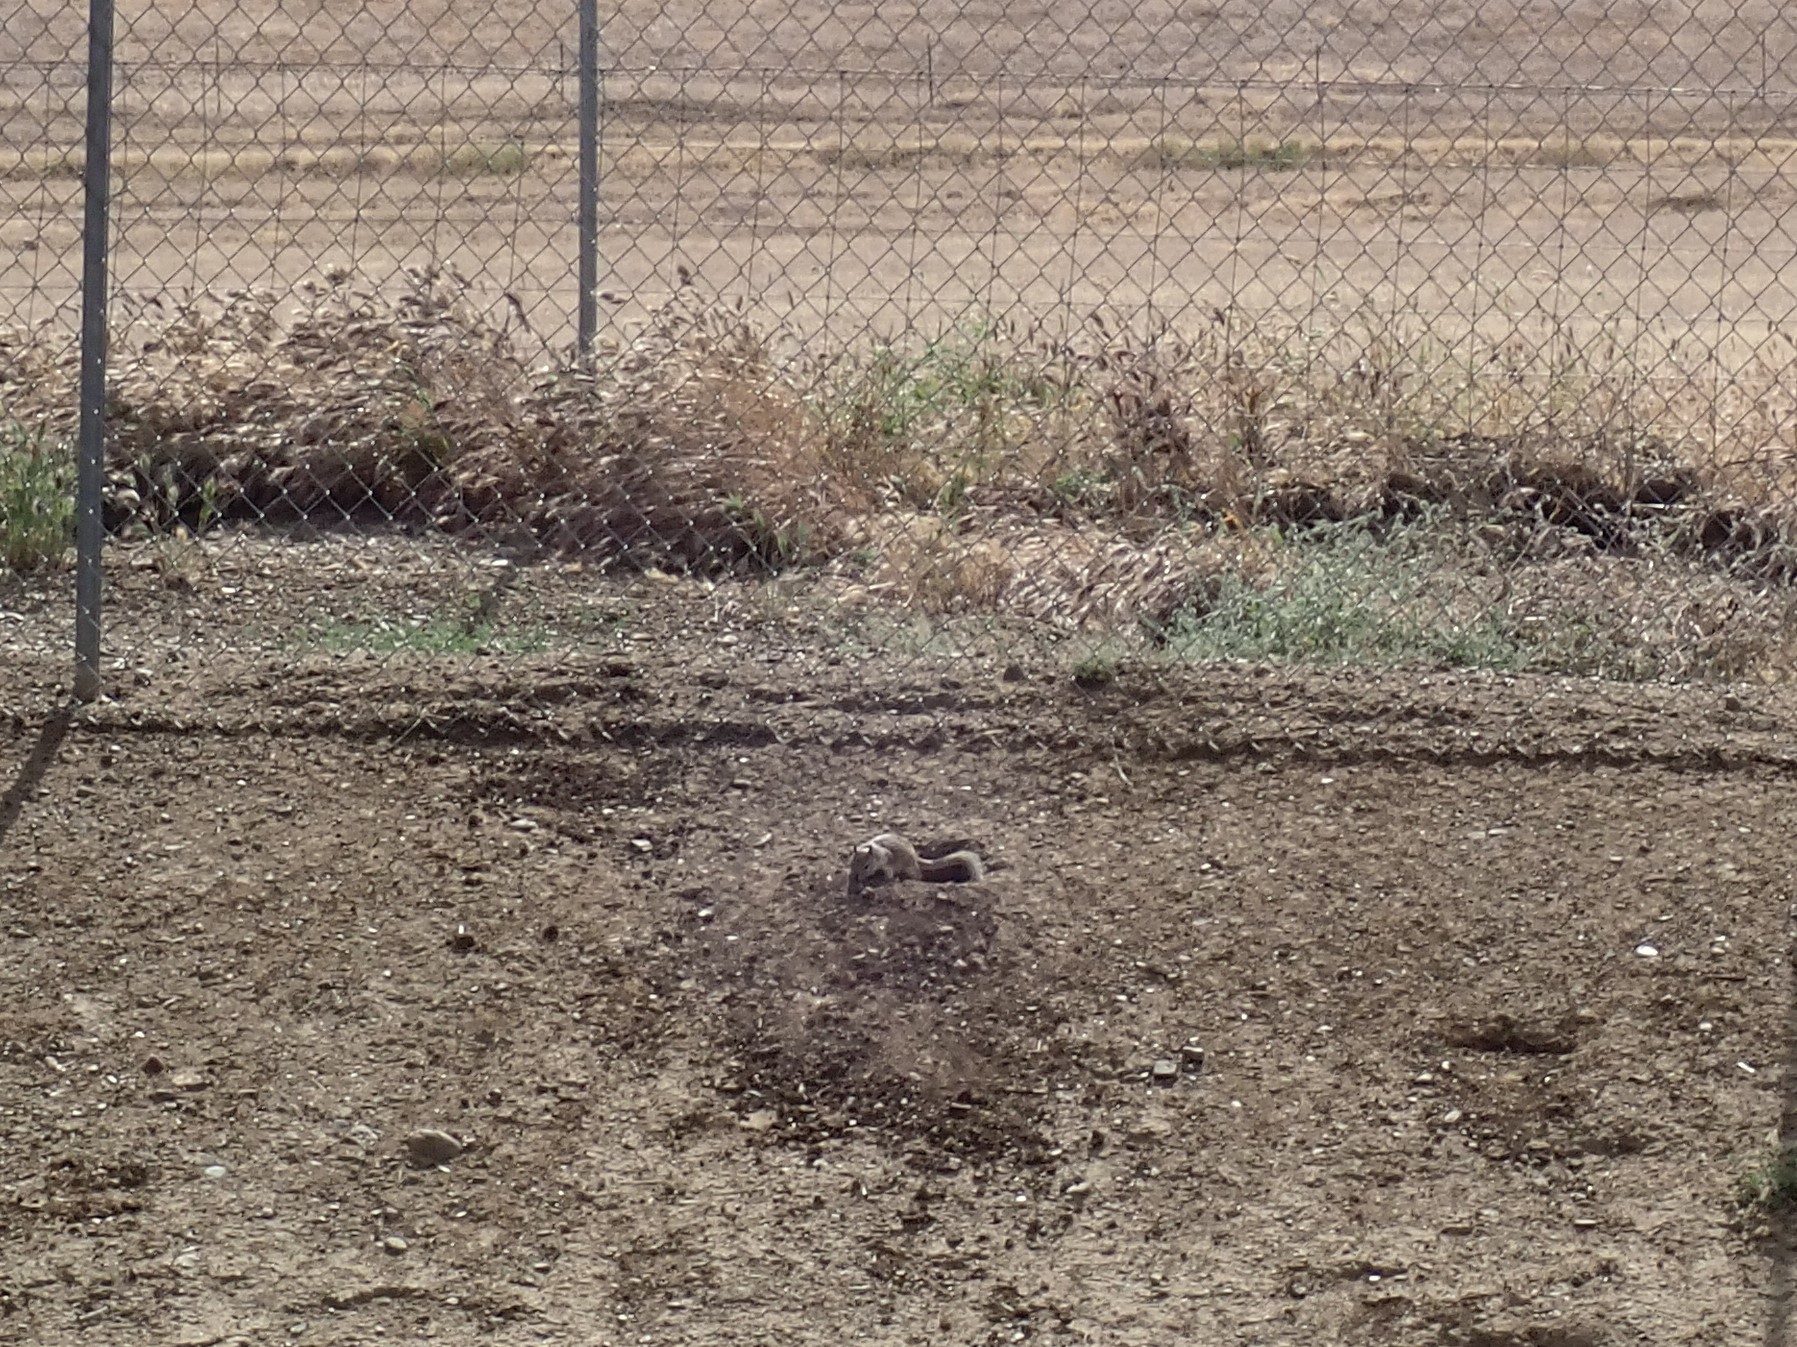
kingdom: Animalia
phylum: Chordata
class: Mammalia
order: Rodentia
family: Sciuridae
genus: Otospermophilus
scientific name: Otospermophilus beecheyi
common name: California ground squirrel
